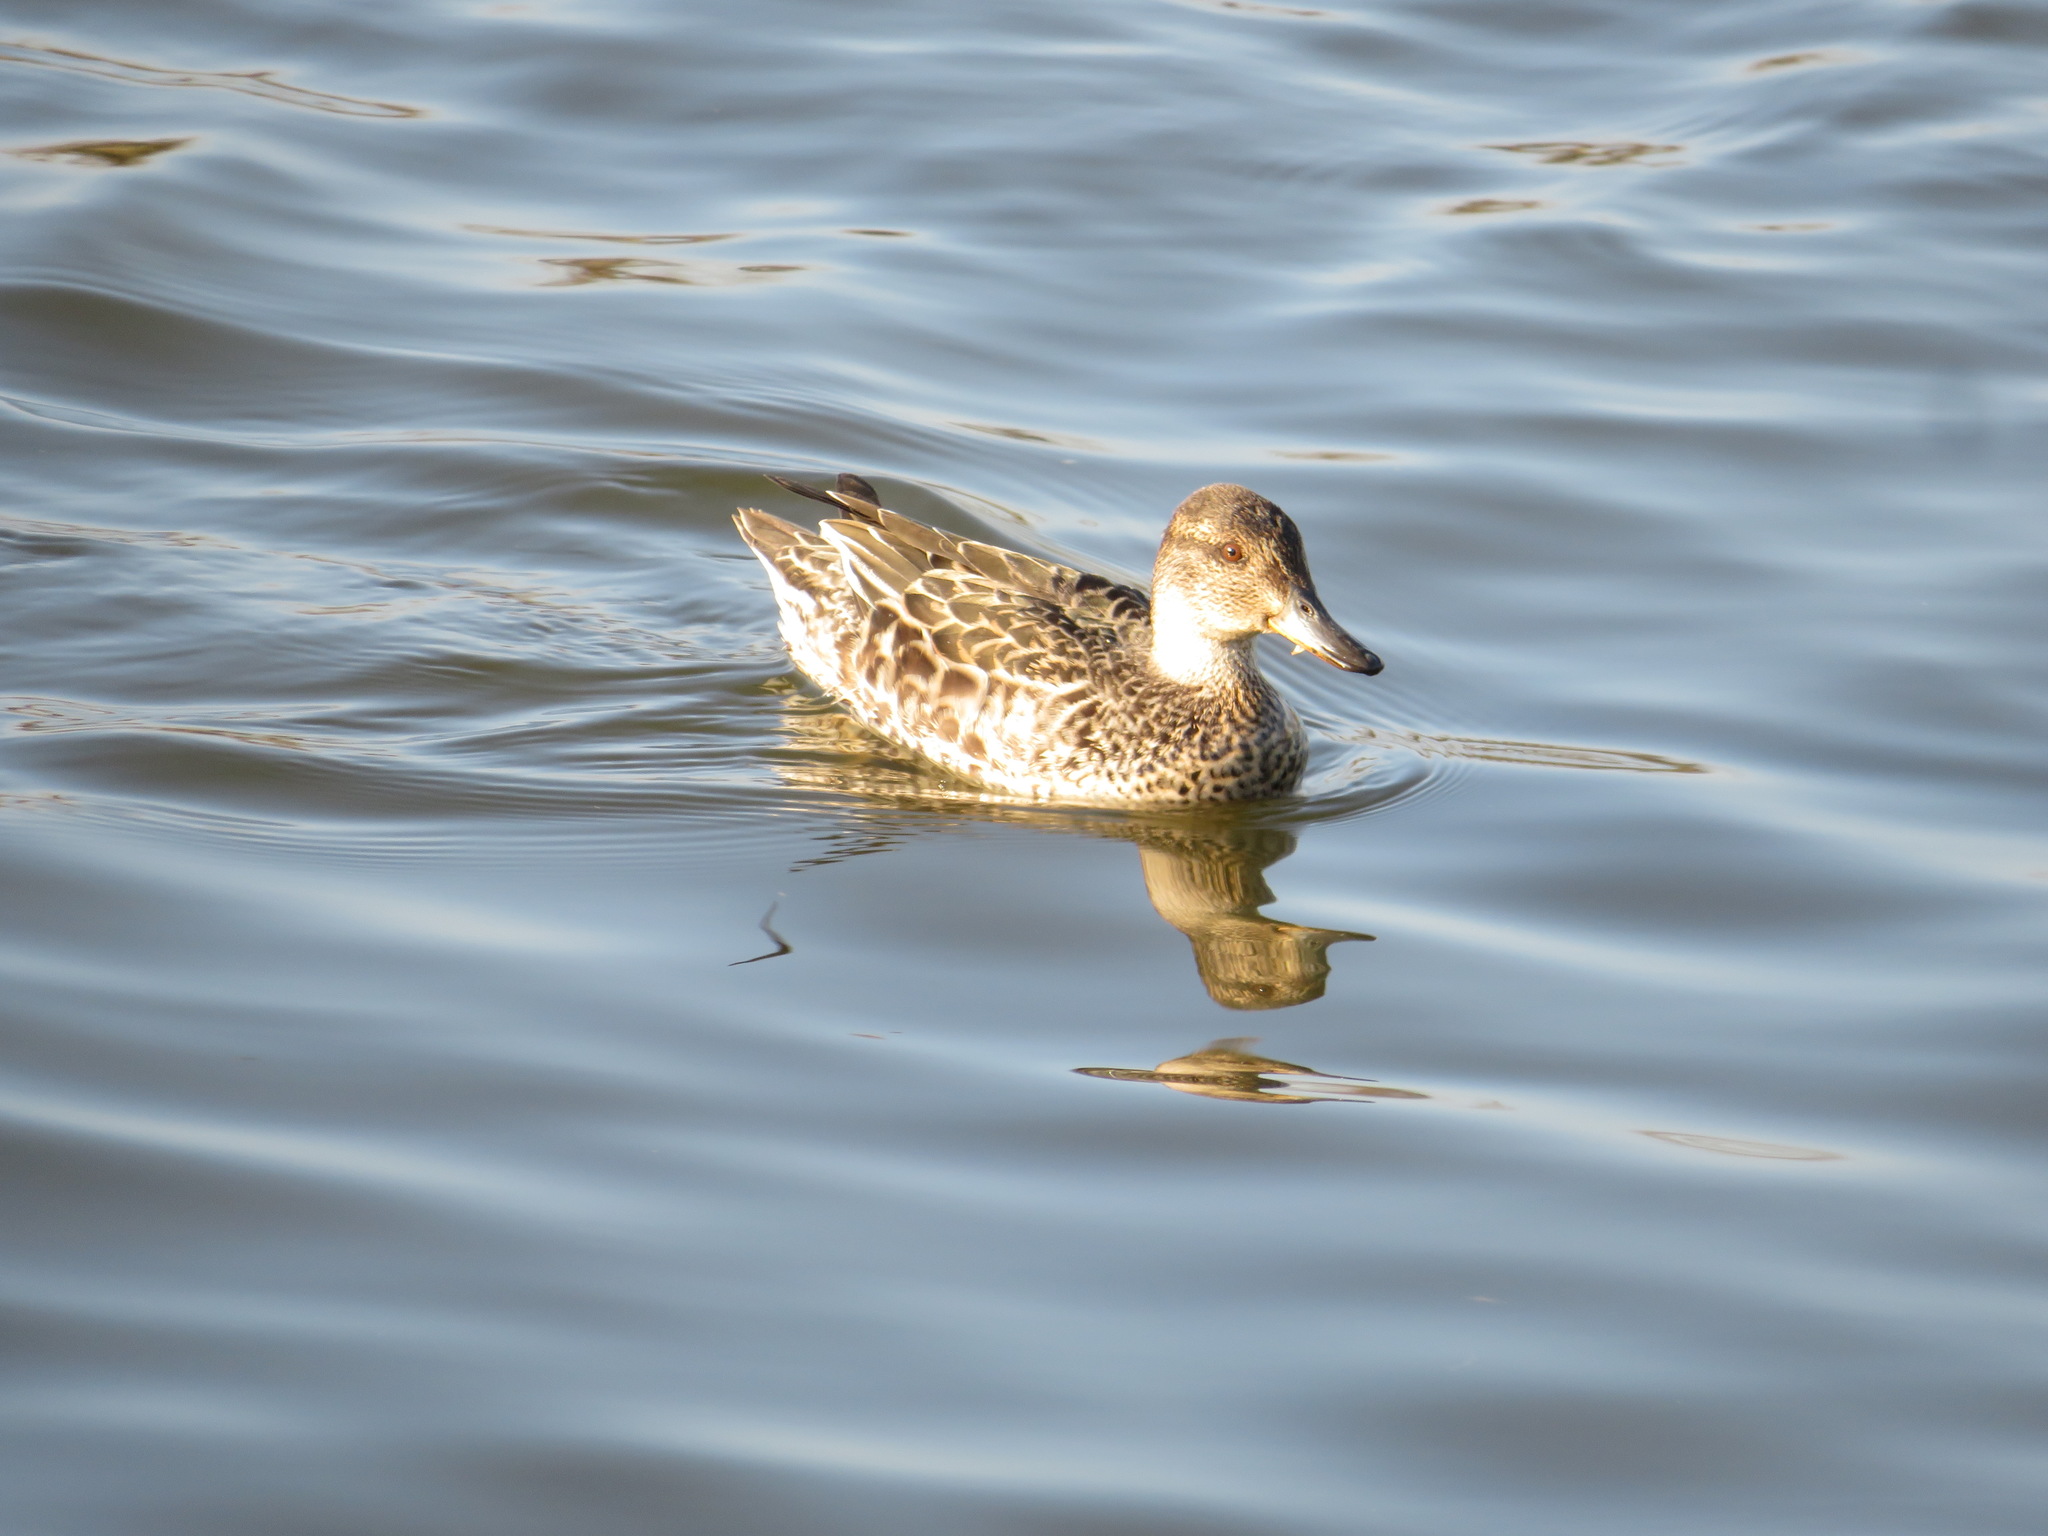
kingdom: Animalia
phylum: Chordata
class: Aves
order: Anseriformes
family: Anatidae
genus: Anas
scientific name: Anas crecca
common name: Eurasian teal
